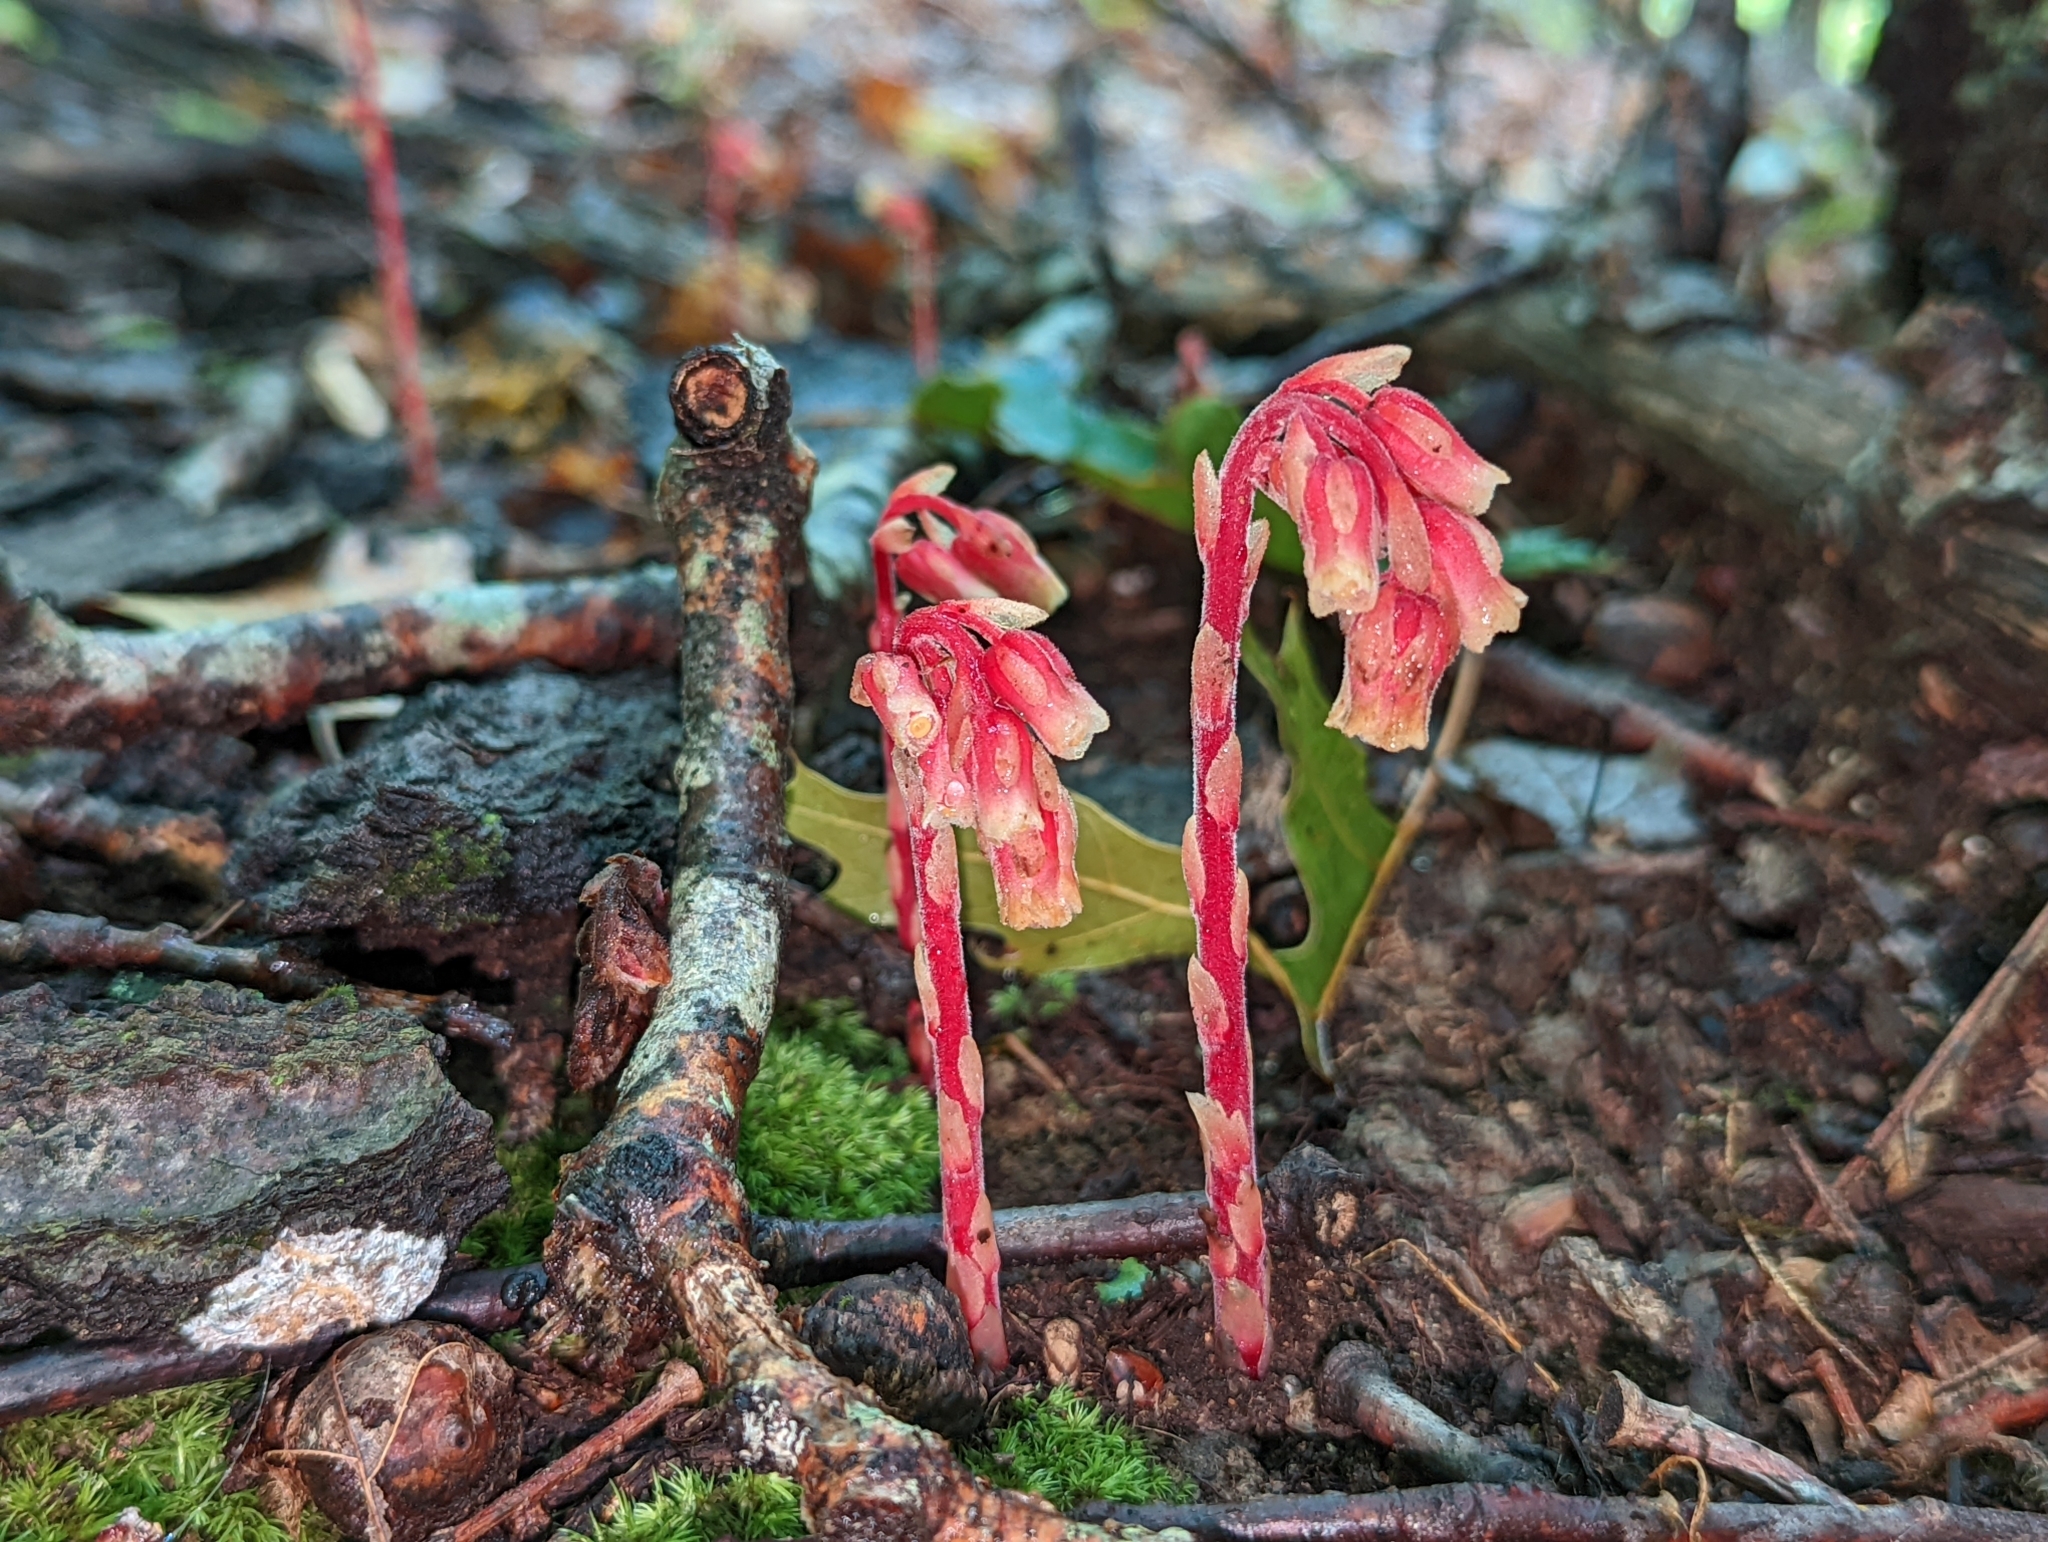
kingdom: Plantae
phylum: Tracheophyta
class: Magnoliopsida
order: Ericales
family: Ericaceae
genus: Hypopitys
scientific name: Hypopitys monotropa
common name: Yellow bird's-nest
